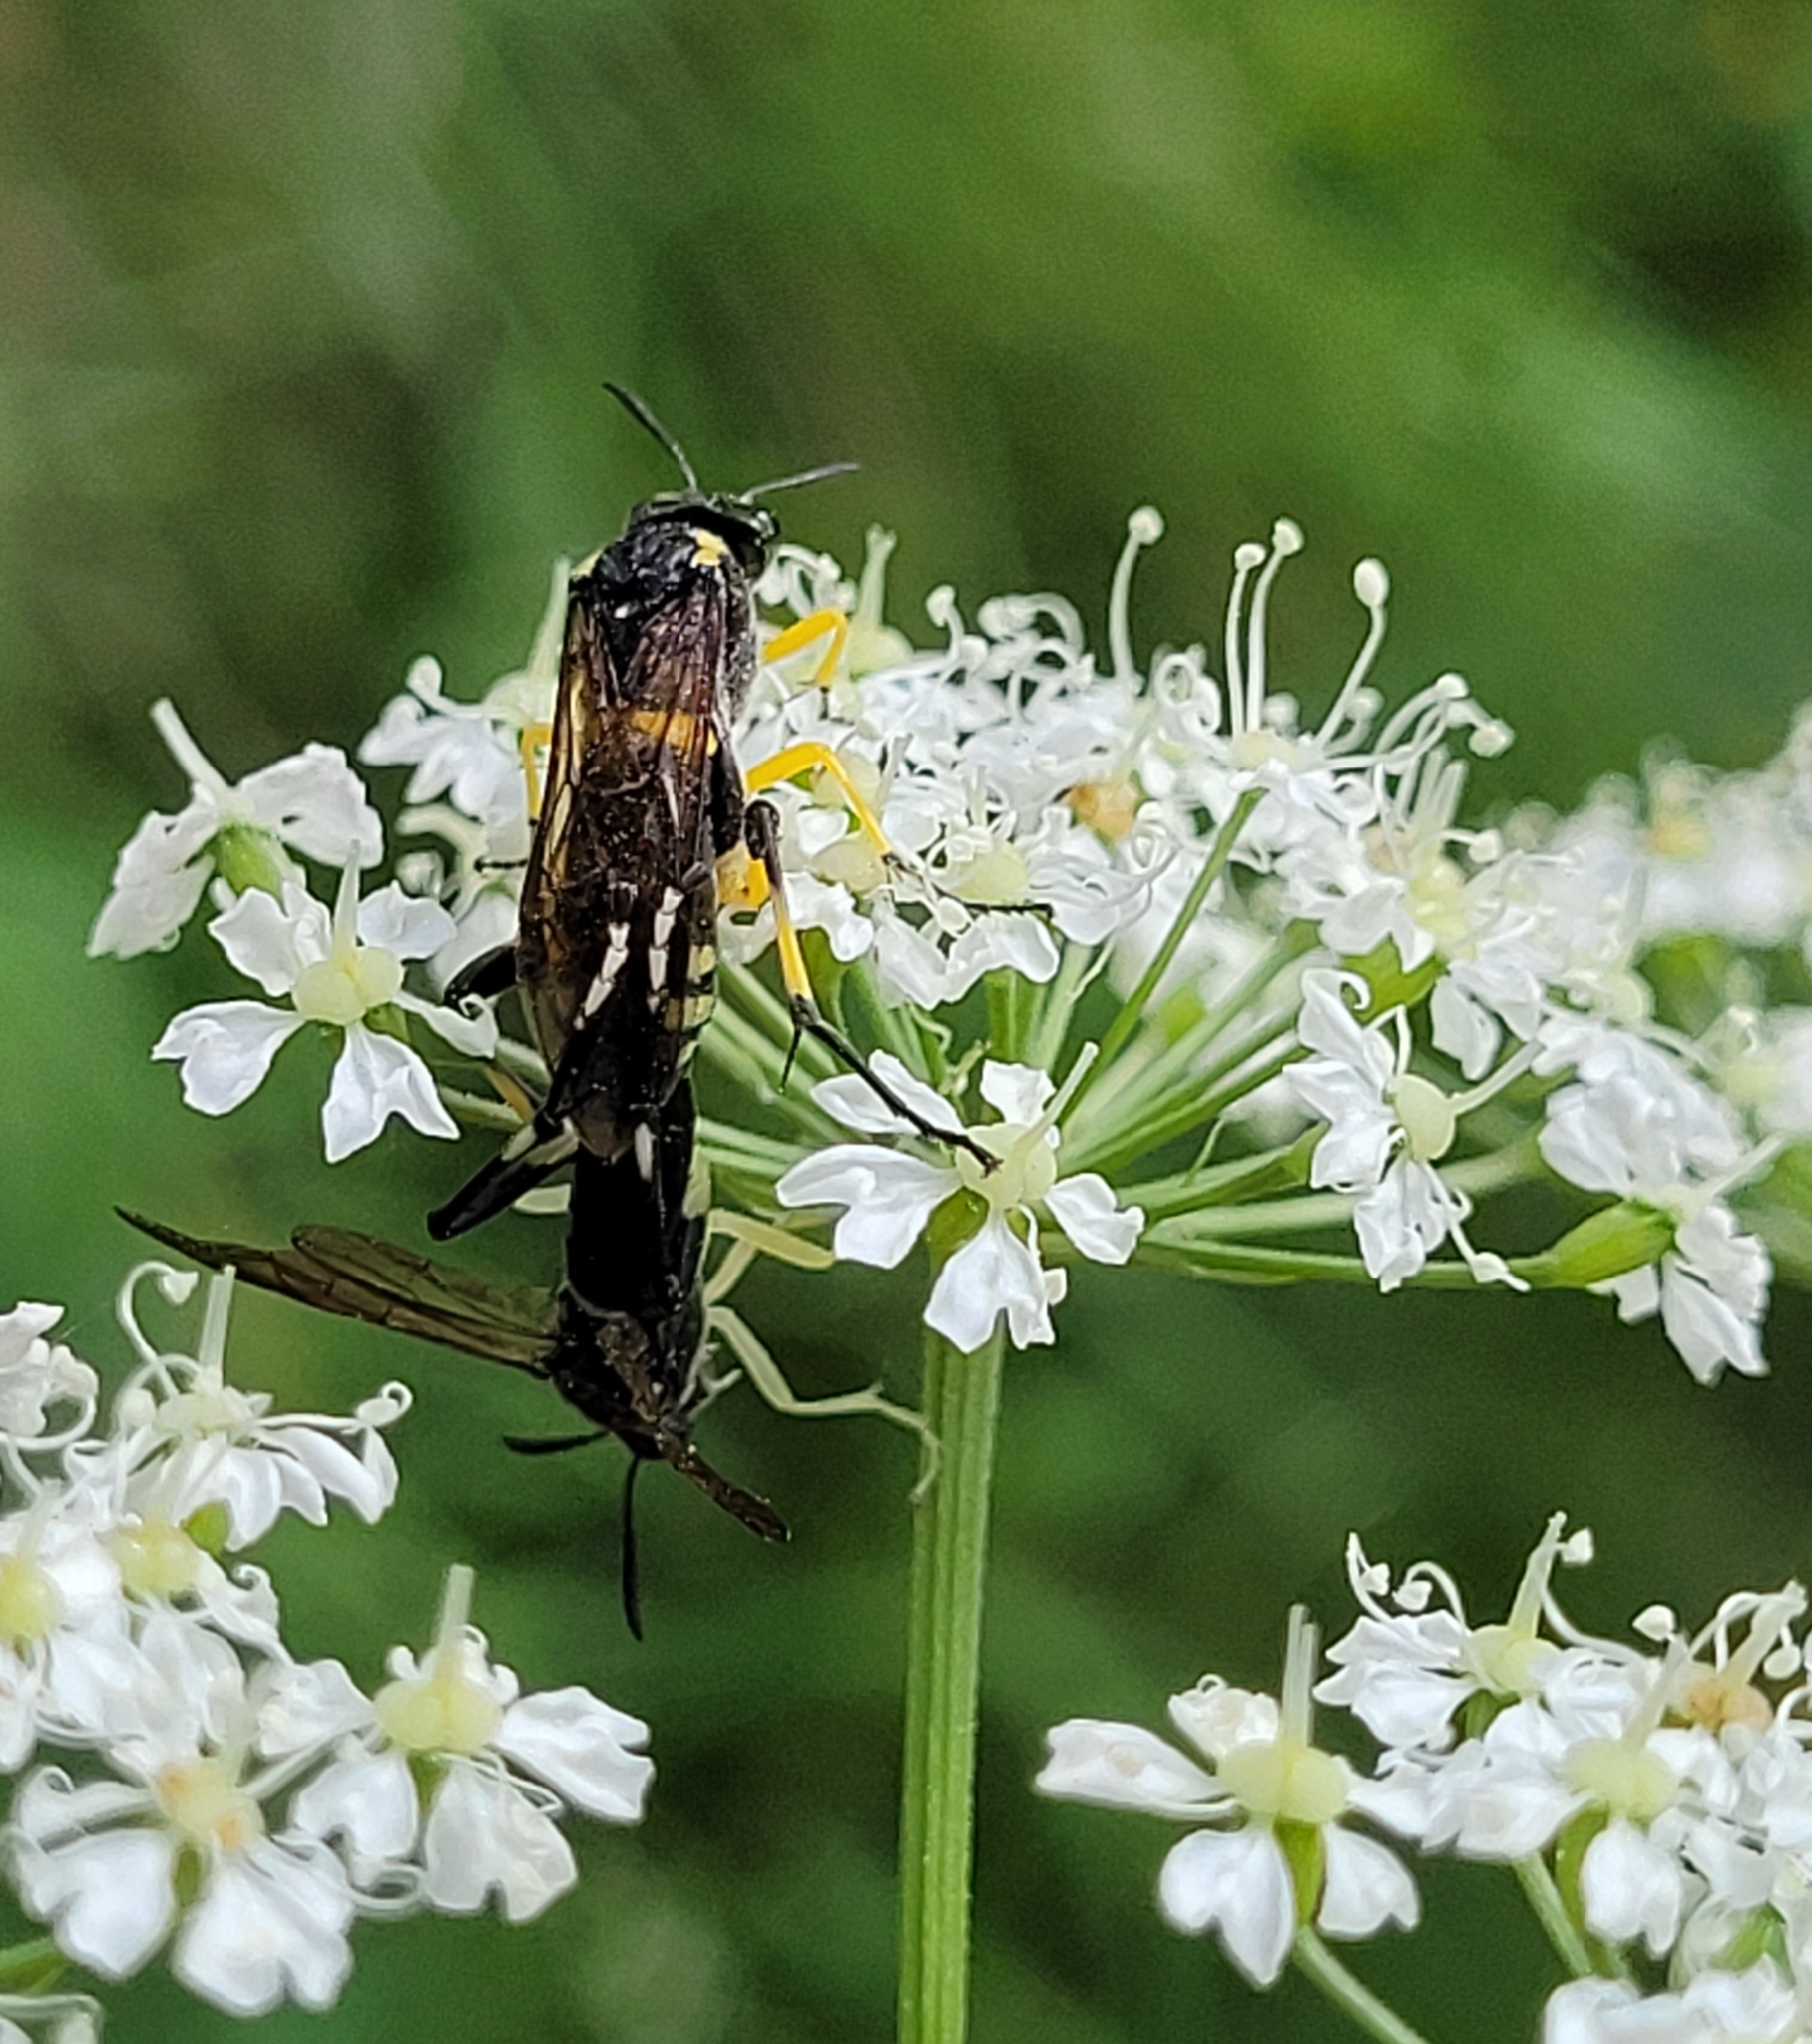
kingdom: Animalia
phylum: Arthropoda
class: Insecta
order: Hymenoptera
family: Tenthredinidae
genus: Macrophya
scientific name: Macrophya montana
